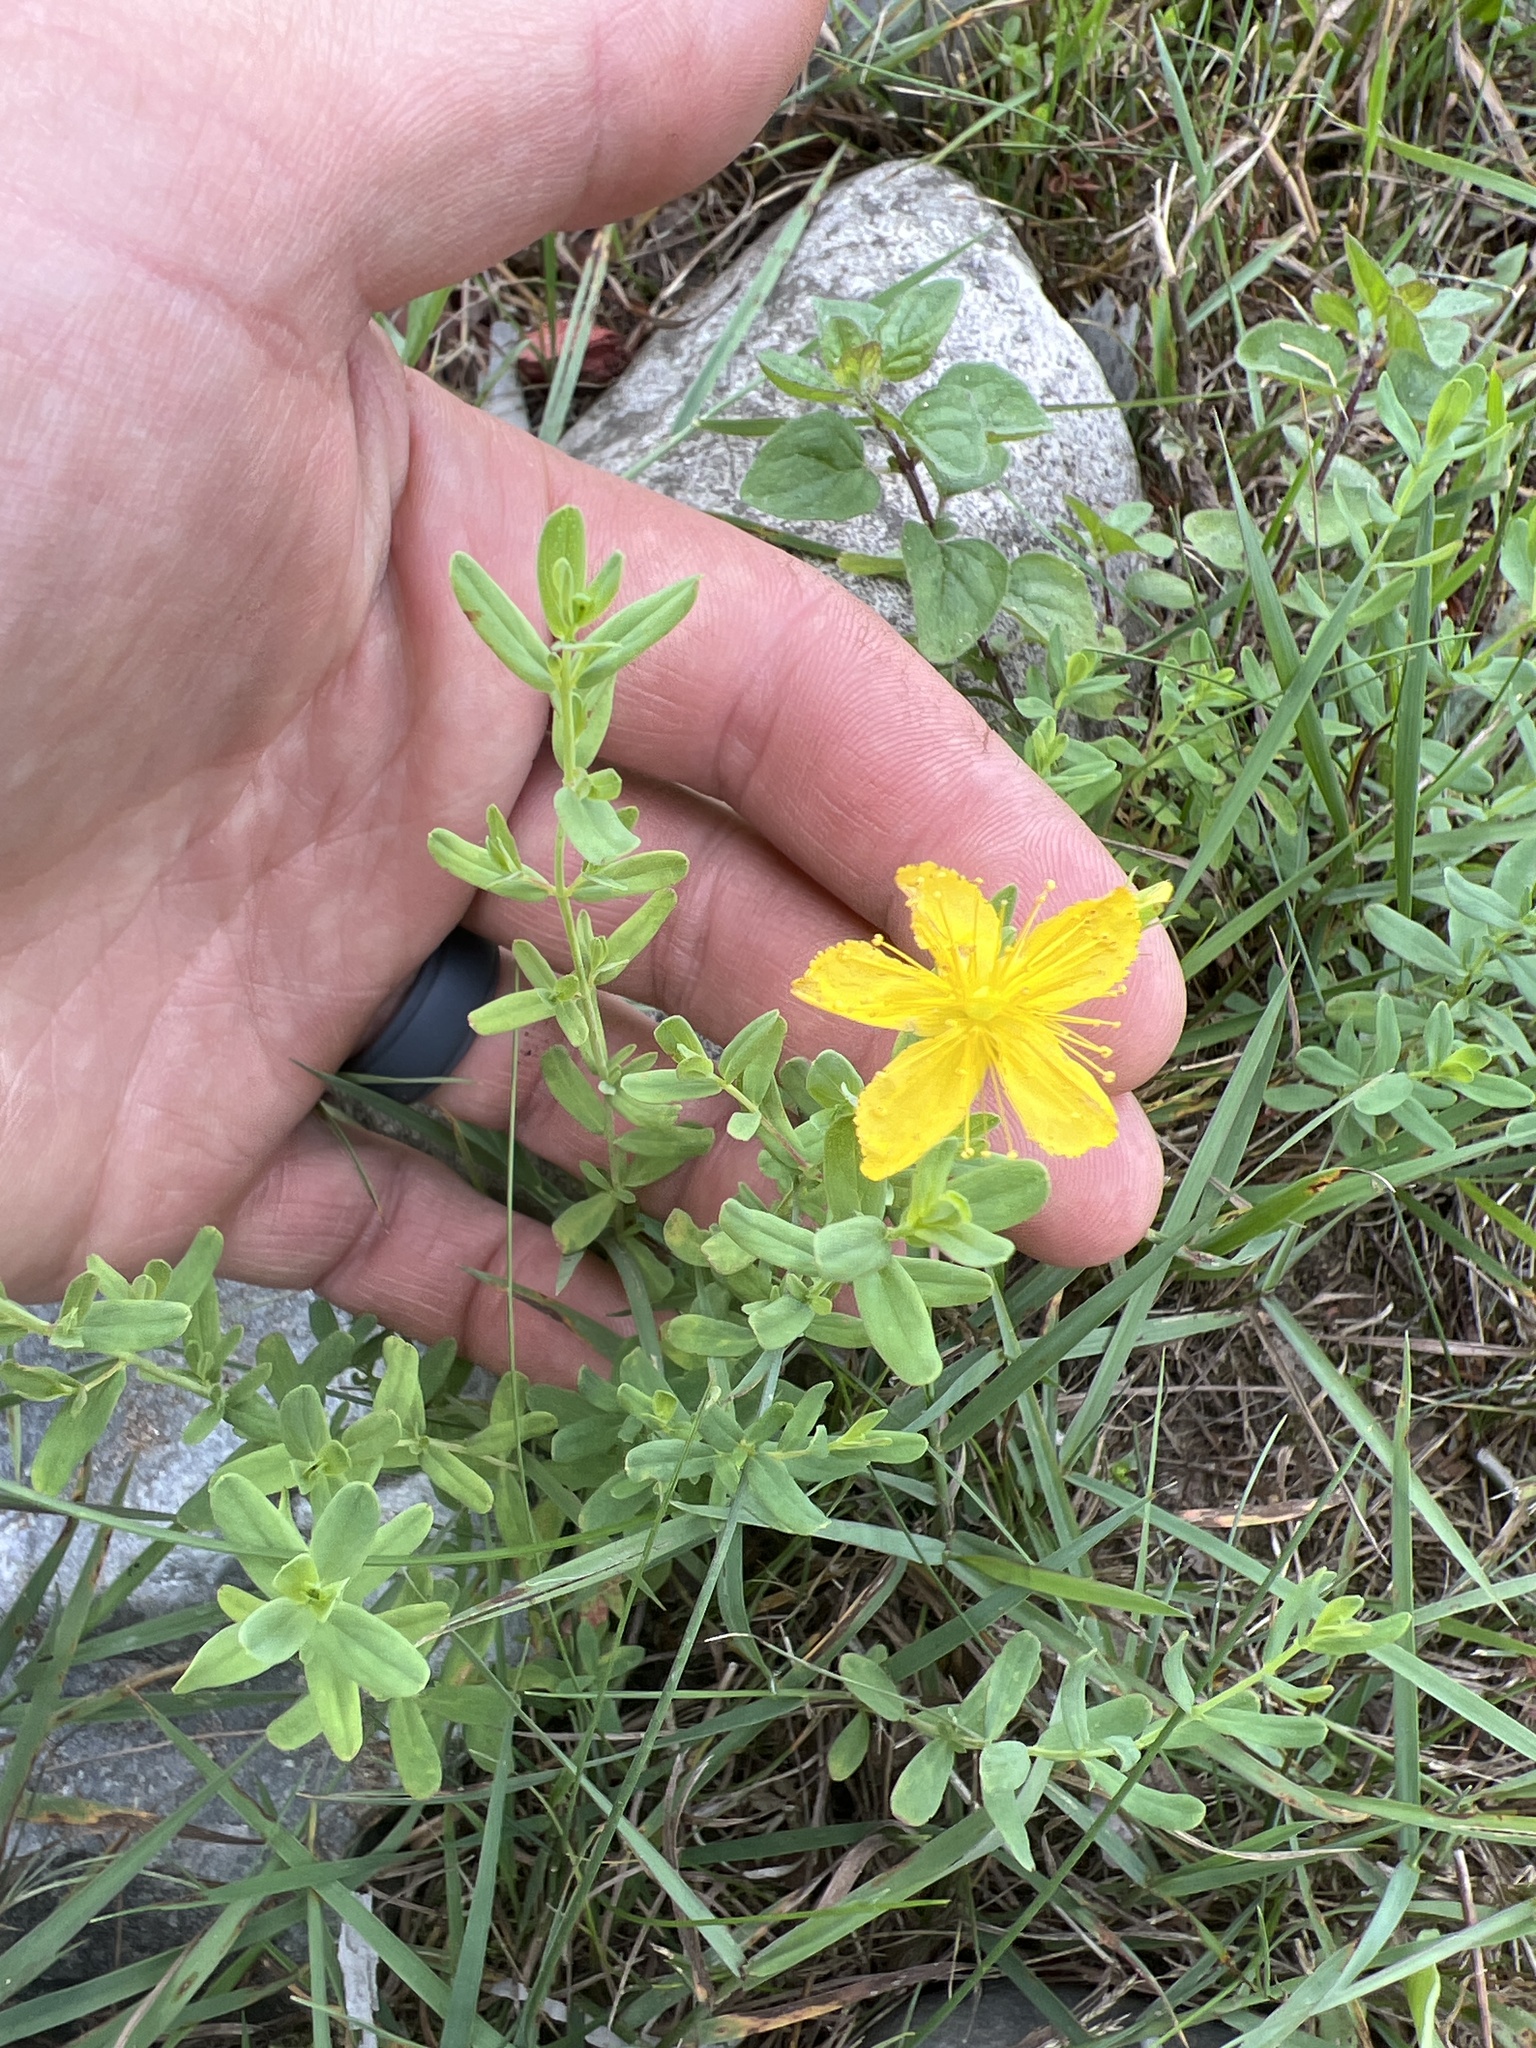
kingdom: Plantae
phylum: Tracheophyta
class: Magnoliopsida
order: Malpighiales
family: Hypericaceae
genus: Hypericum
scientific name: Hypericum perforatum
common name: Common st. johnswort
